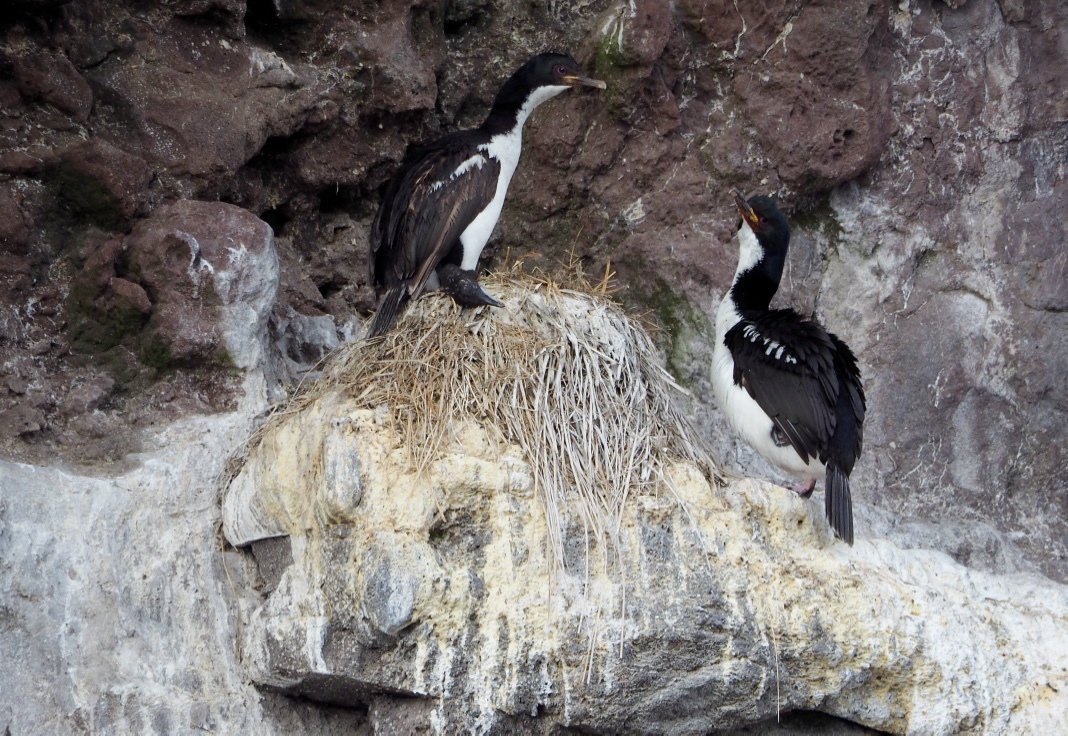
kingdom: Animalia
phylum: Chordata
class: Aves
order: Suliformes
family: Phalacrocoracidae
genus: Leucocarbo
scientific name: Leucocarbo colensoi
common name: Auckland shag
